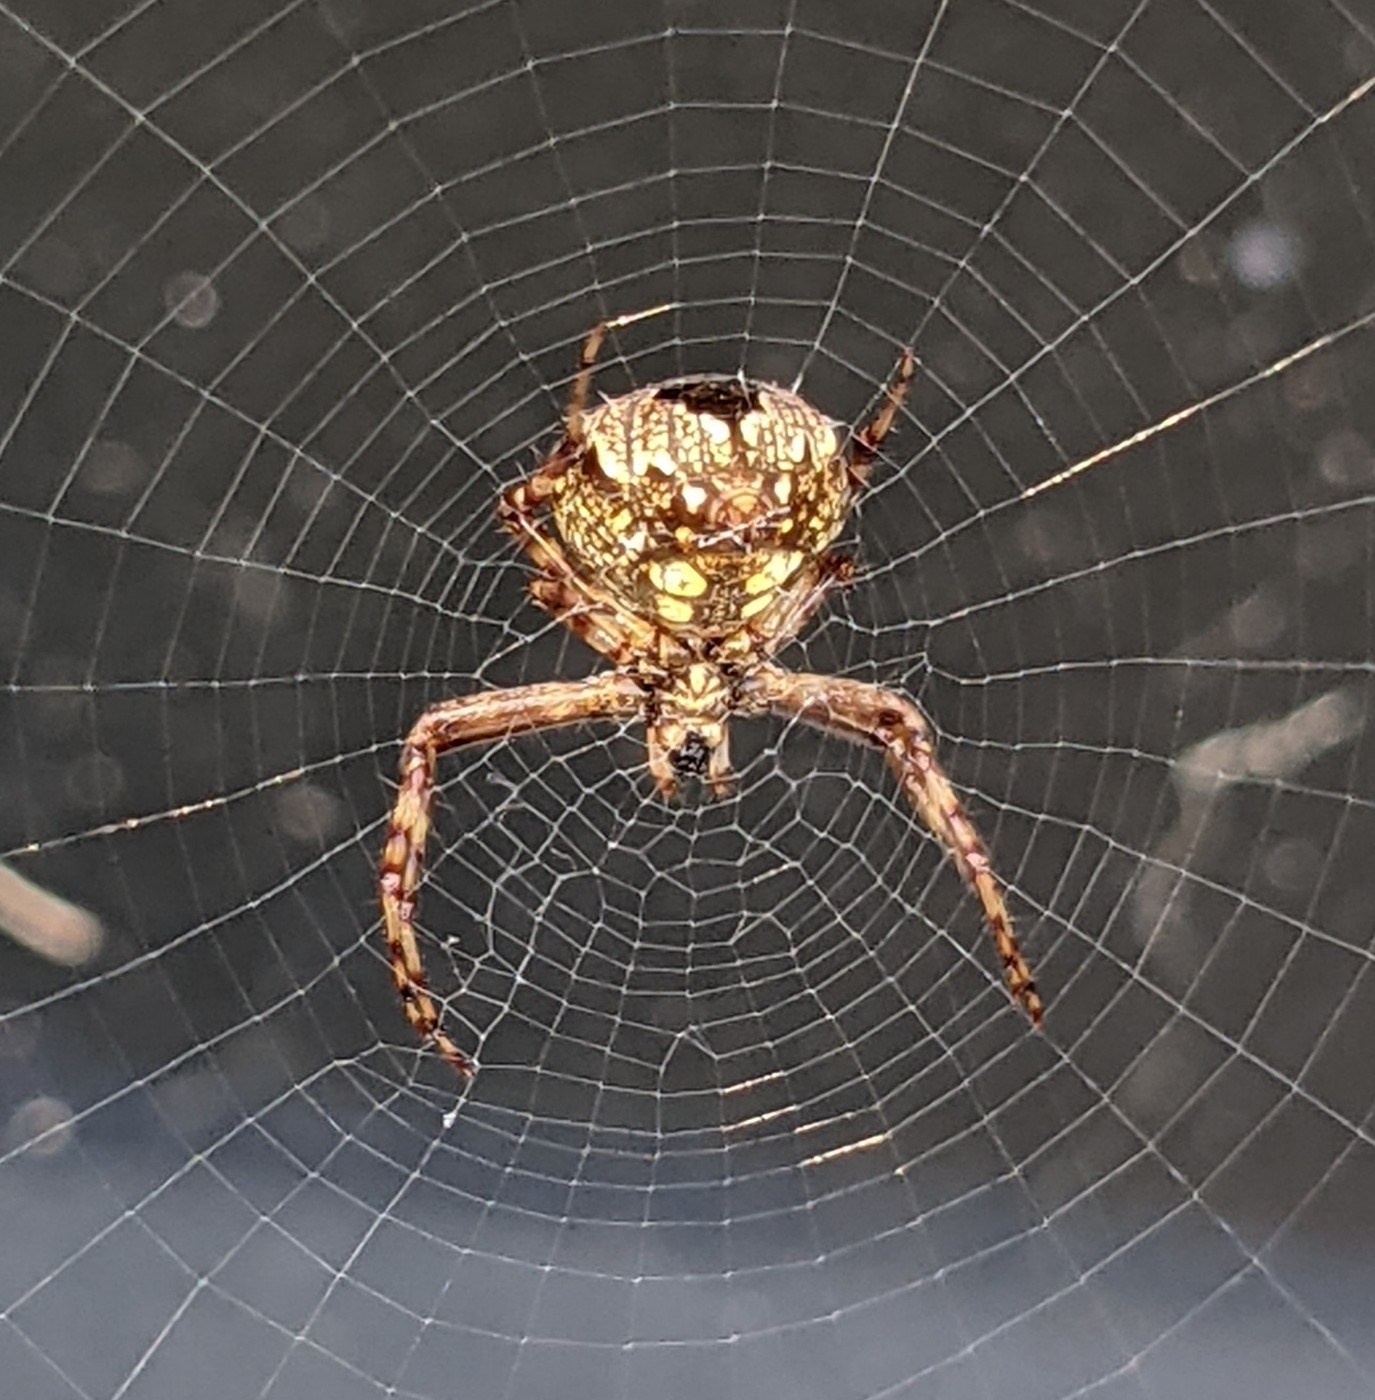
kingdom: Animalia
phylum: Arthropoda
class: Arachnida
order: Araneae
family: Araneidae
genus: Gea
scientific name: Gea heptagon
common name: Orb weavers
